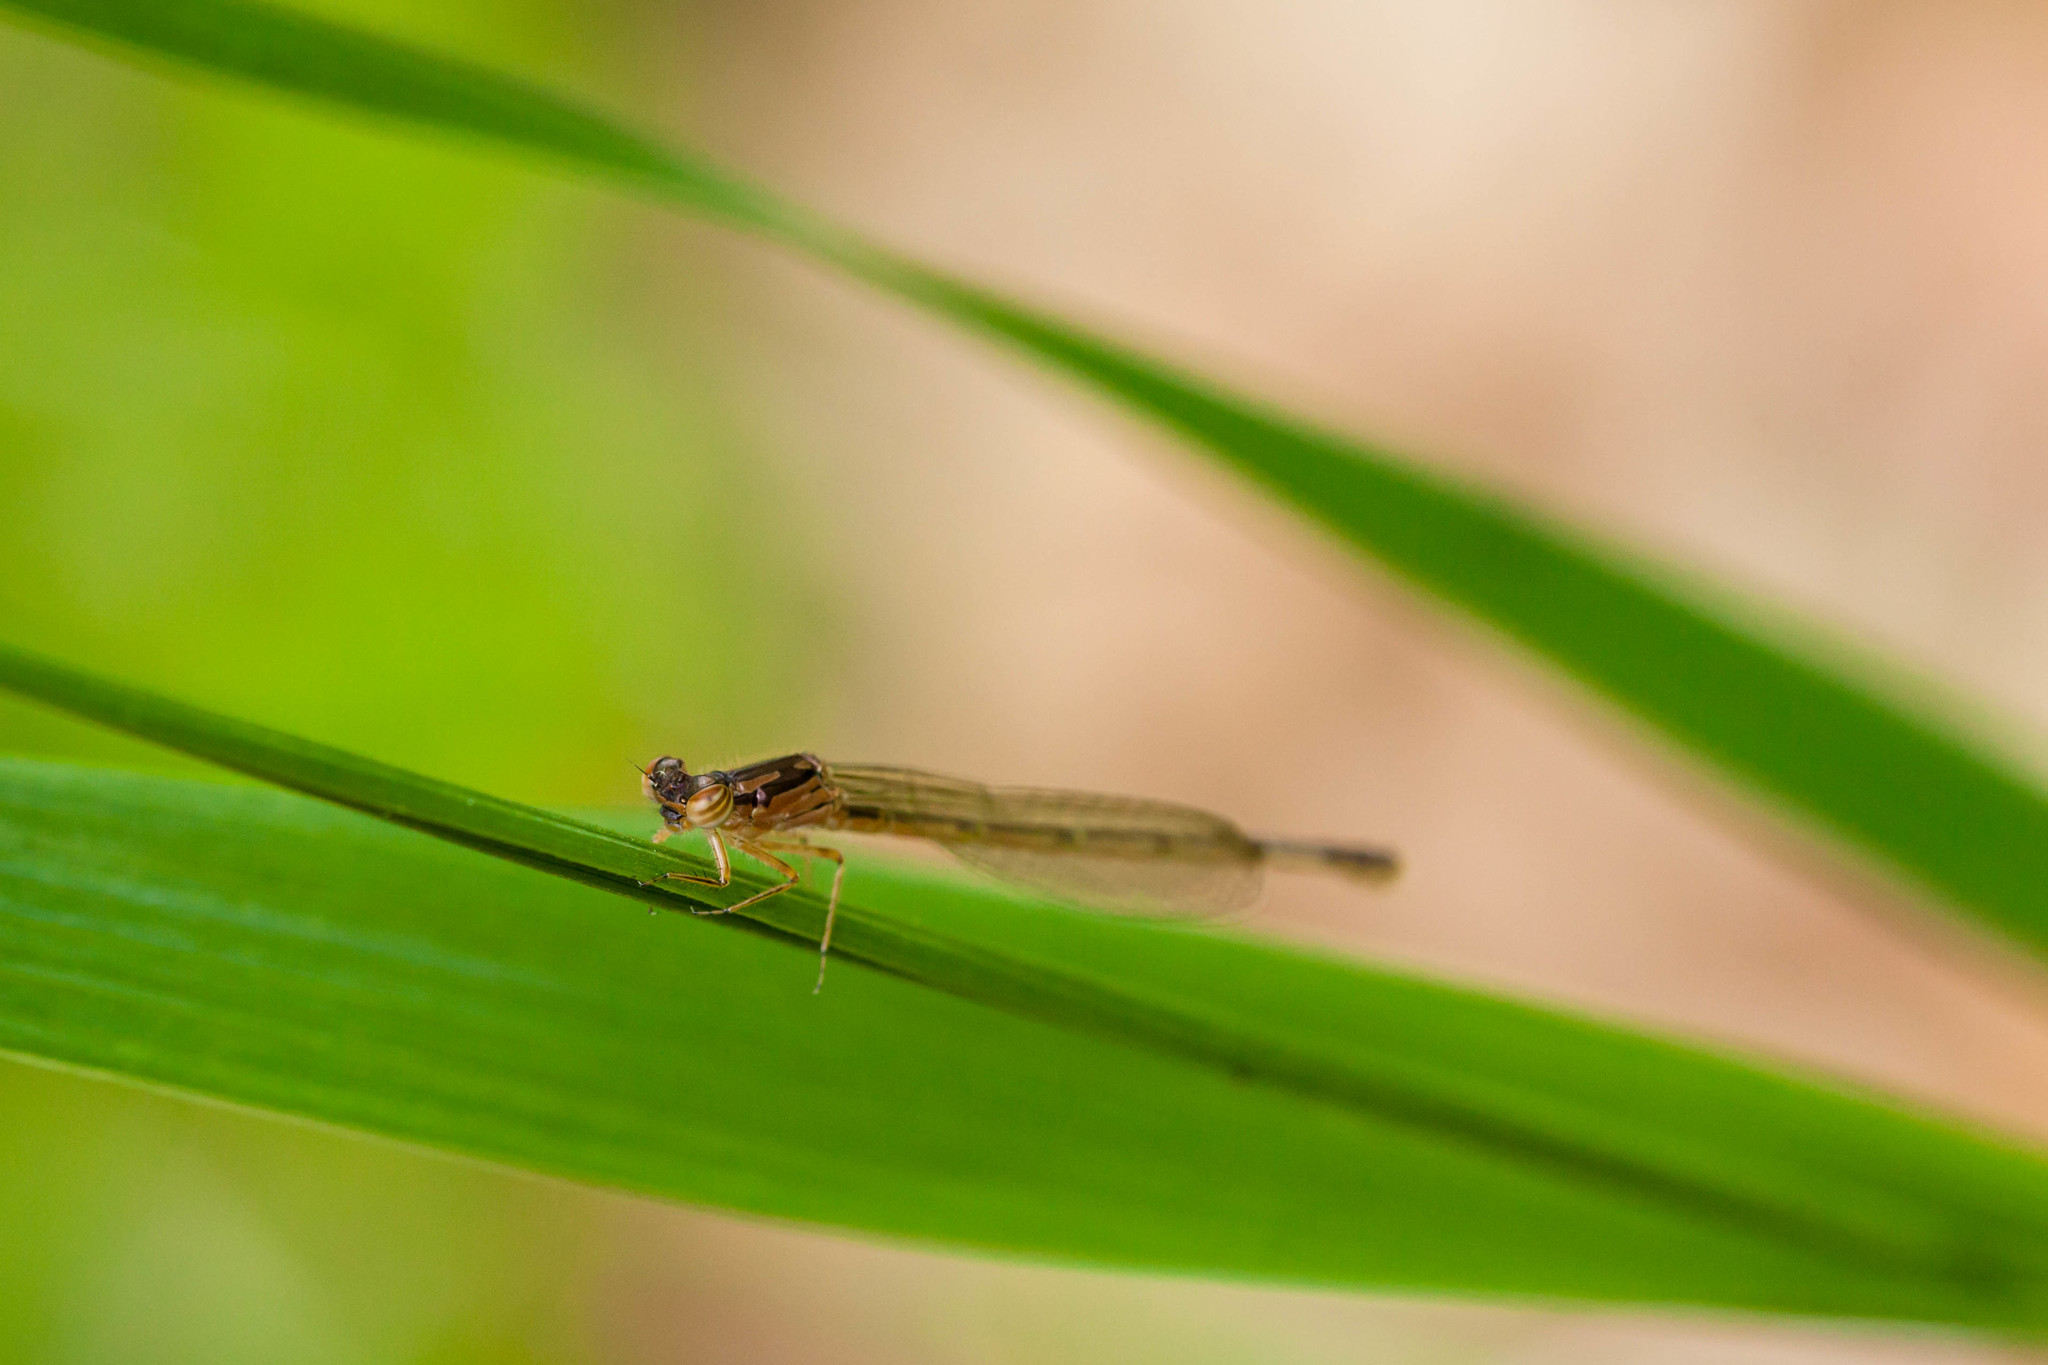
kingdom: Animalia
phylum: Arthropoda
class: Insecta
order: Odonata
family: Coenagrionidae
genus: Ischnura
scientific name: Ischnura posita
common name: Fragile forktail
